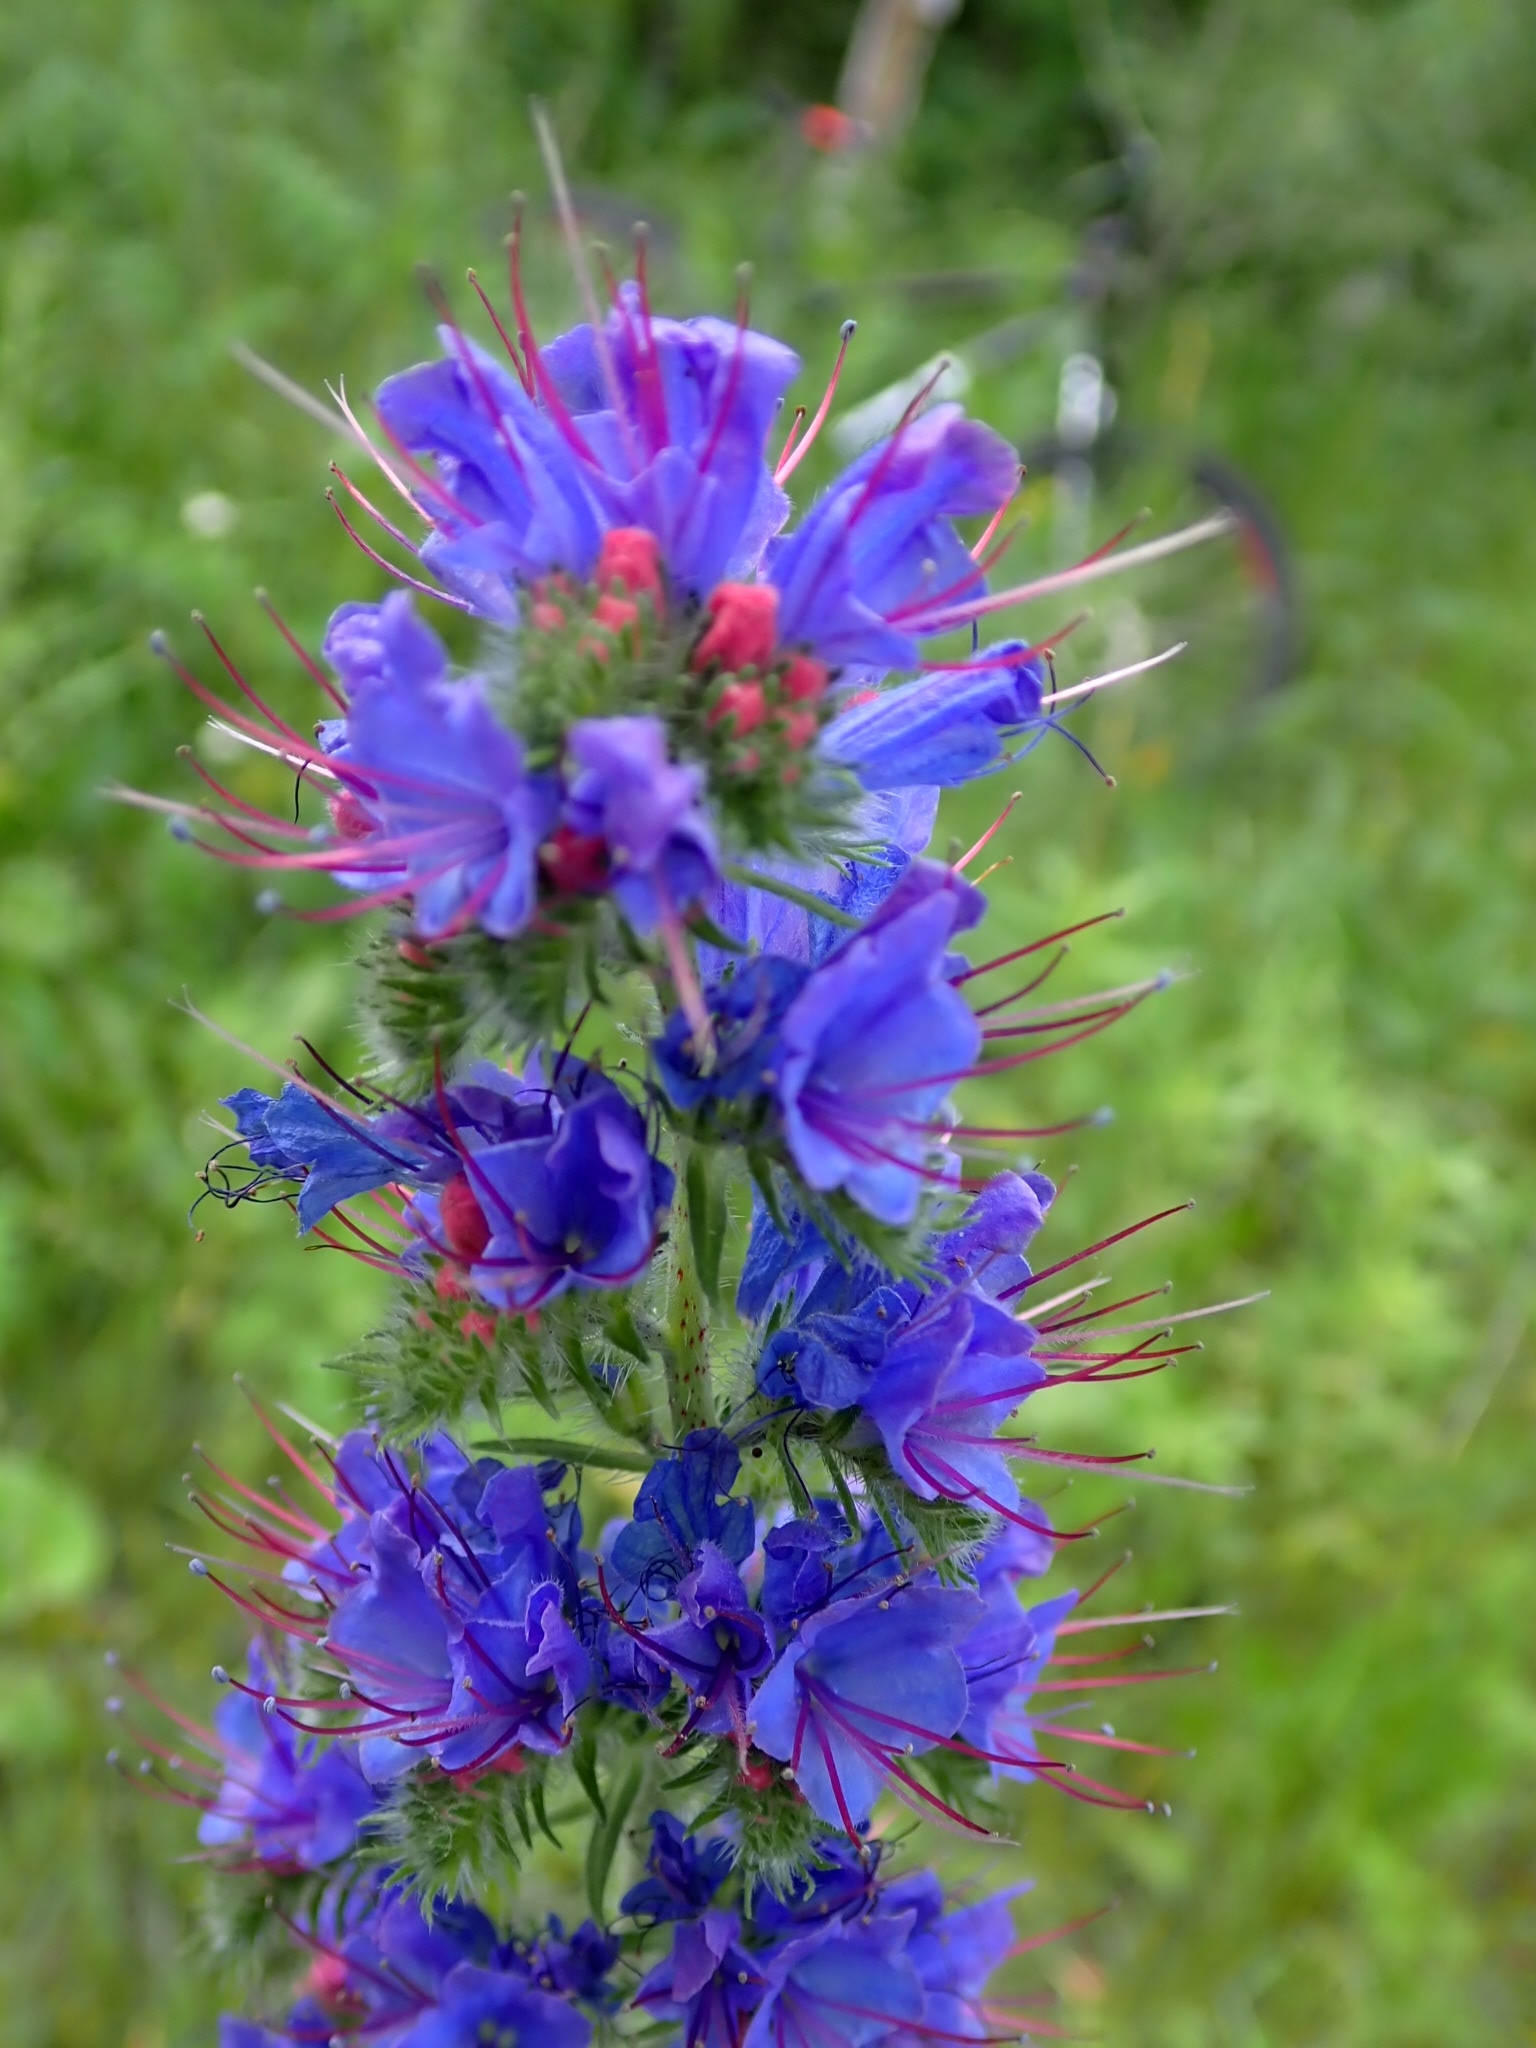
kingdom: Plantae
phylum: Tracheophyta
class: Magnoliopsida
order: Boraginales
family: Boraginaceae
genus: Echium
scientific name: Echium vulgare
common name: Common viper's bugloss
